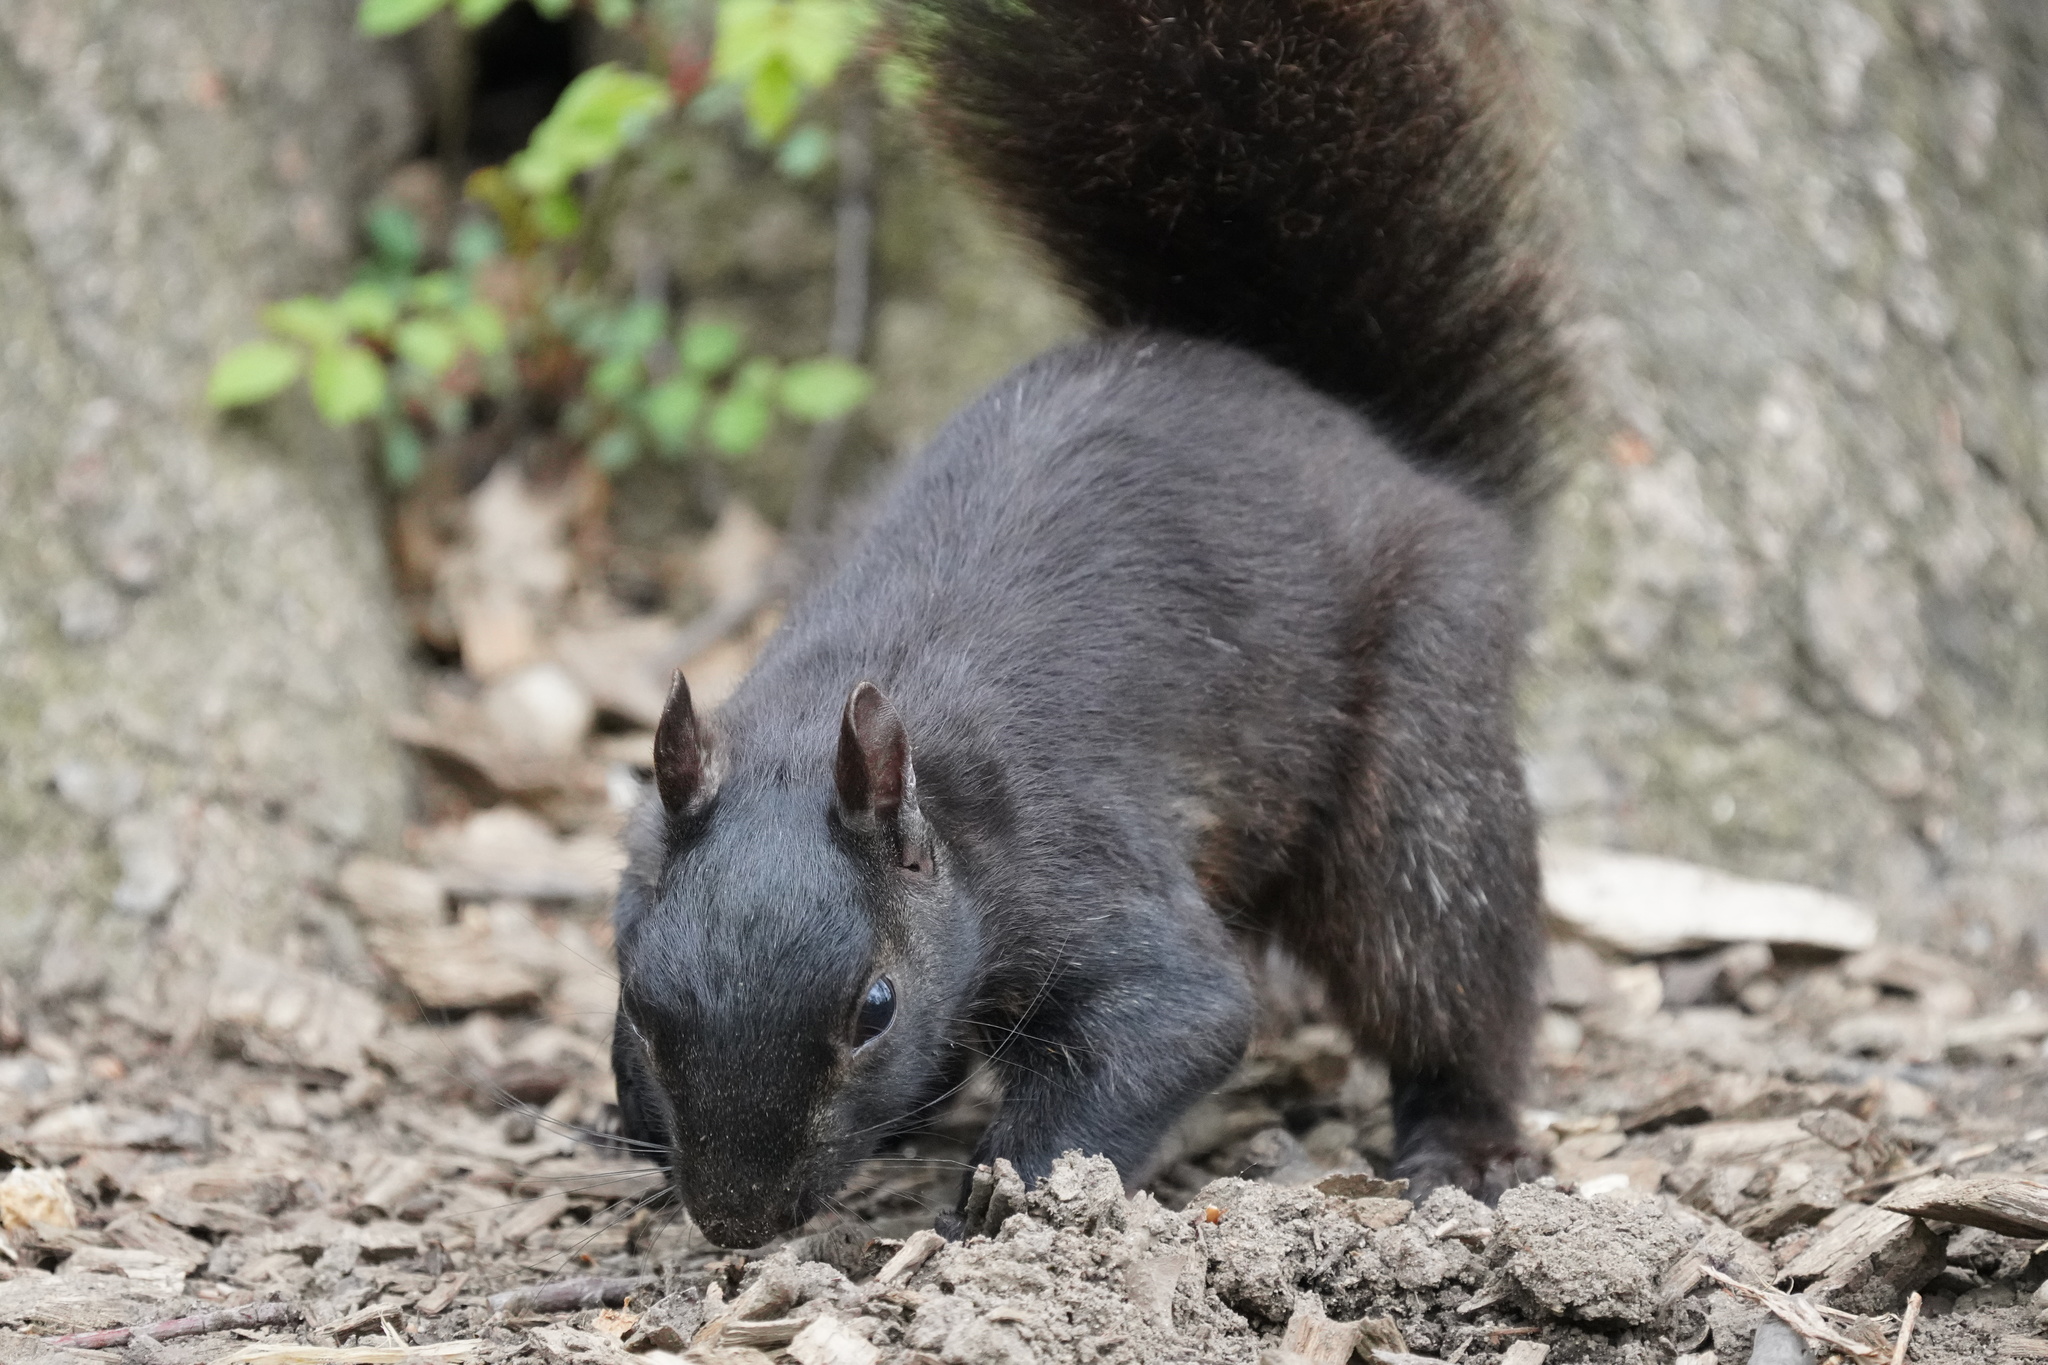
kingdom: Animalia
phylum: Chordata
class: Mammalia
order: Rodentia
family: Sciuridae
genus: Sciurus
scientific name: Sciurus carolinensis
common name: Eastern gray squirrel
